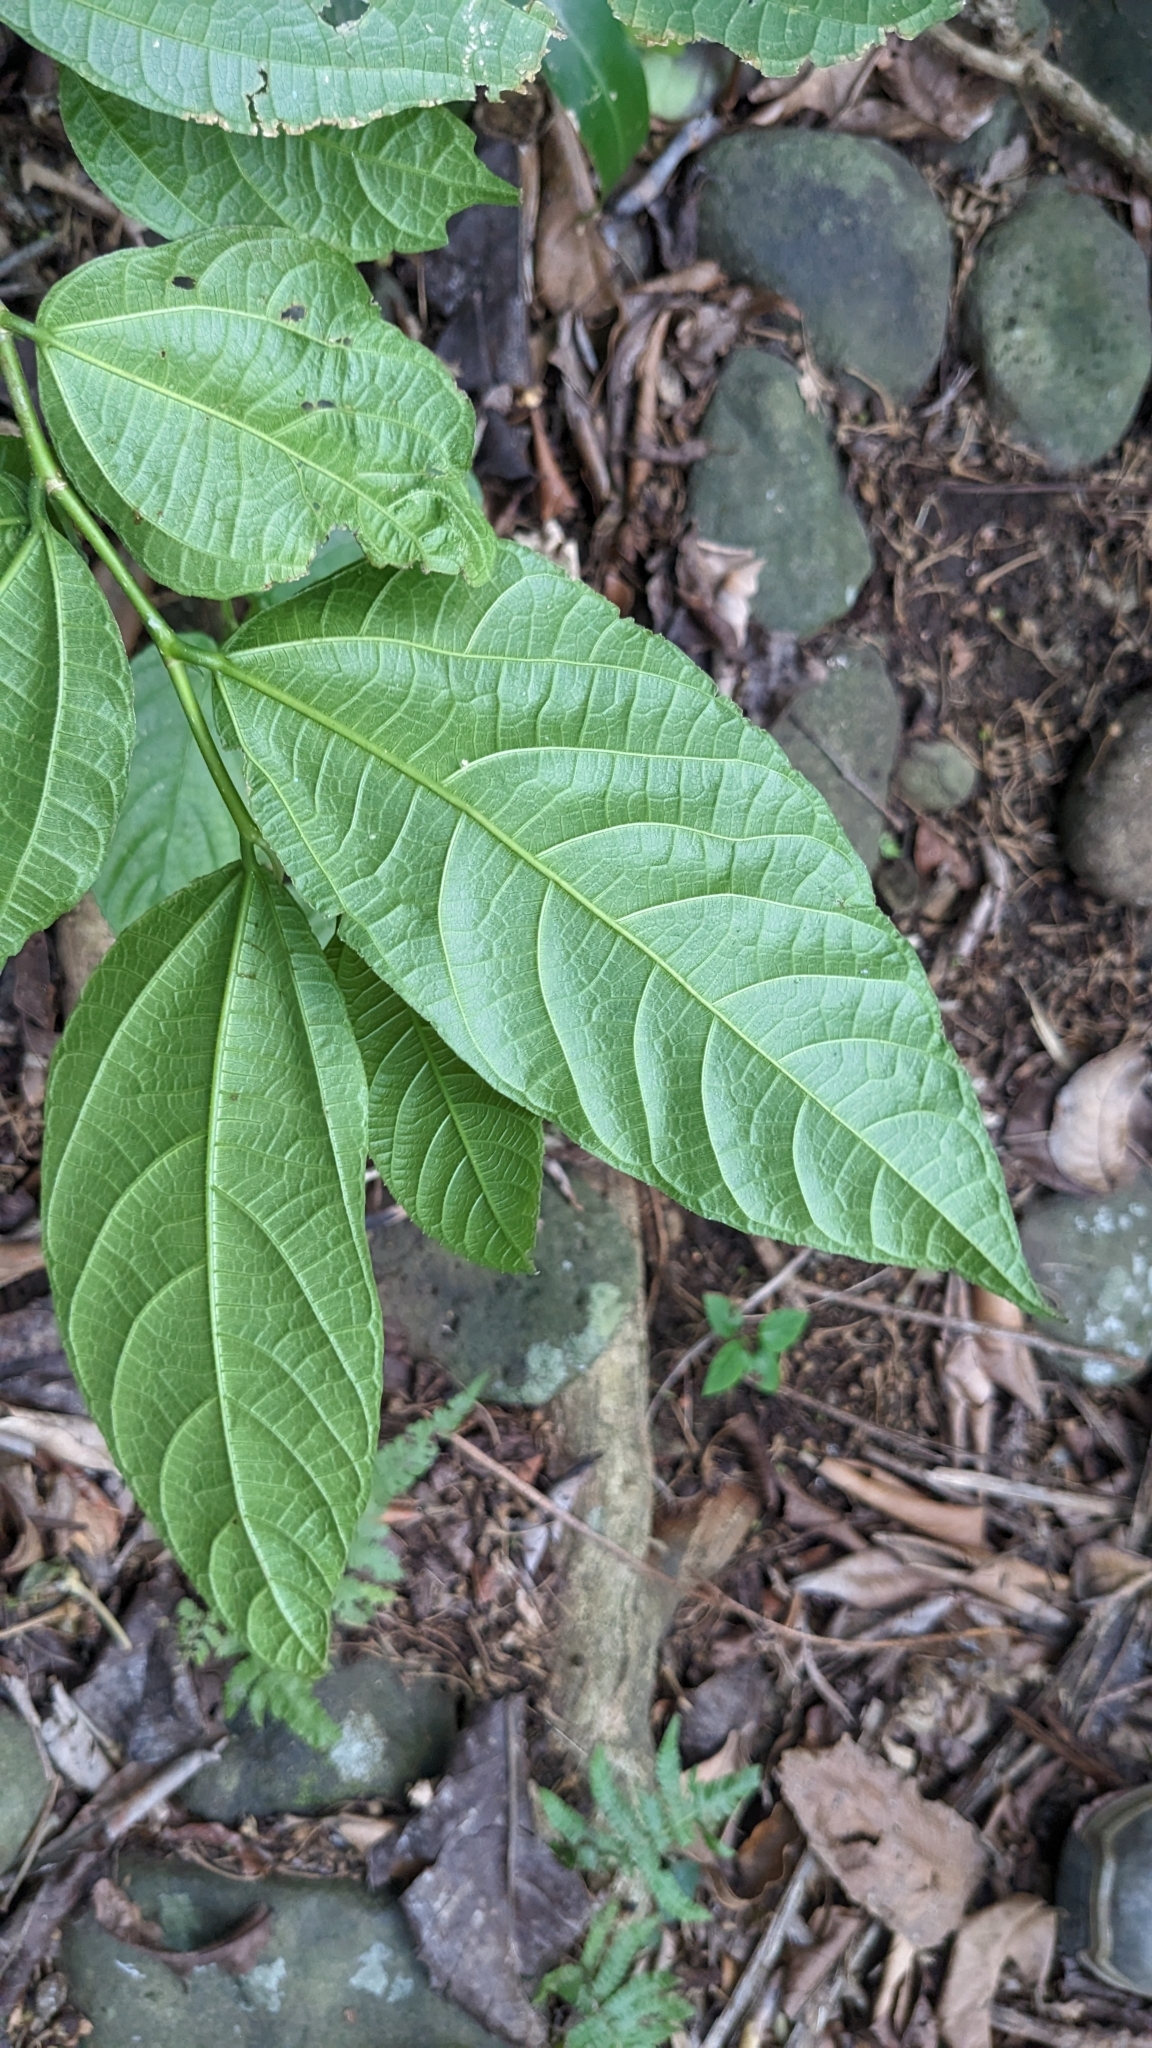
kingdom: Plantae
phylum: Tracheophyta
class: Magnoliopsida
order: Rosales
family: Moraceae
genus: Ficus
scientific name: Ficus ampelos
